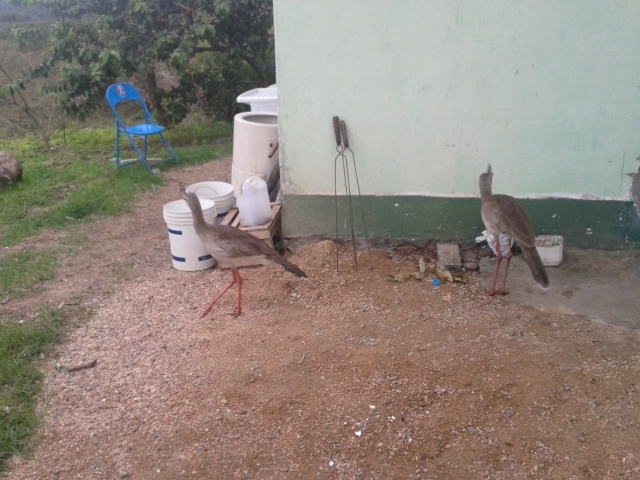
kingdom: Animalia
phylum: Chordata
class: Aves
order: Cariamiformes
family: Cariamidae
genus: Cariama
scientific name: Cariama cristata
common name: Red-legged seriema
